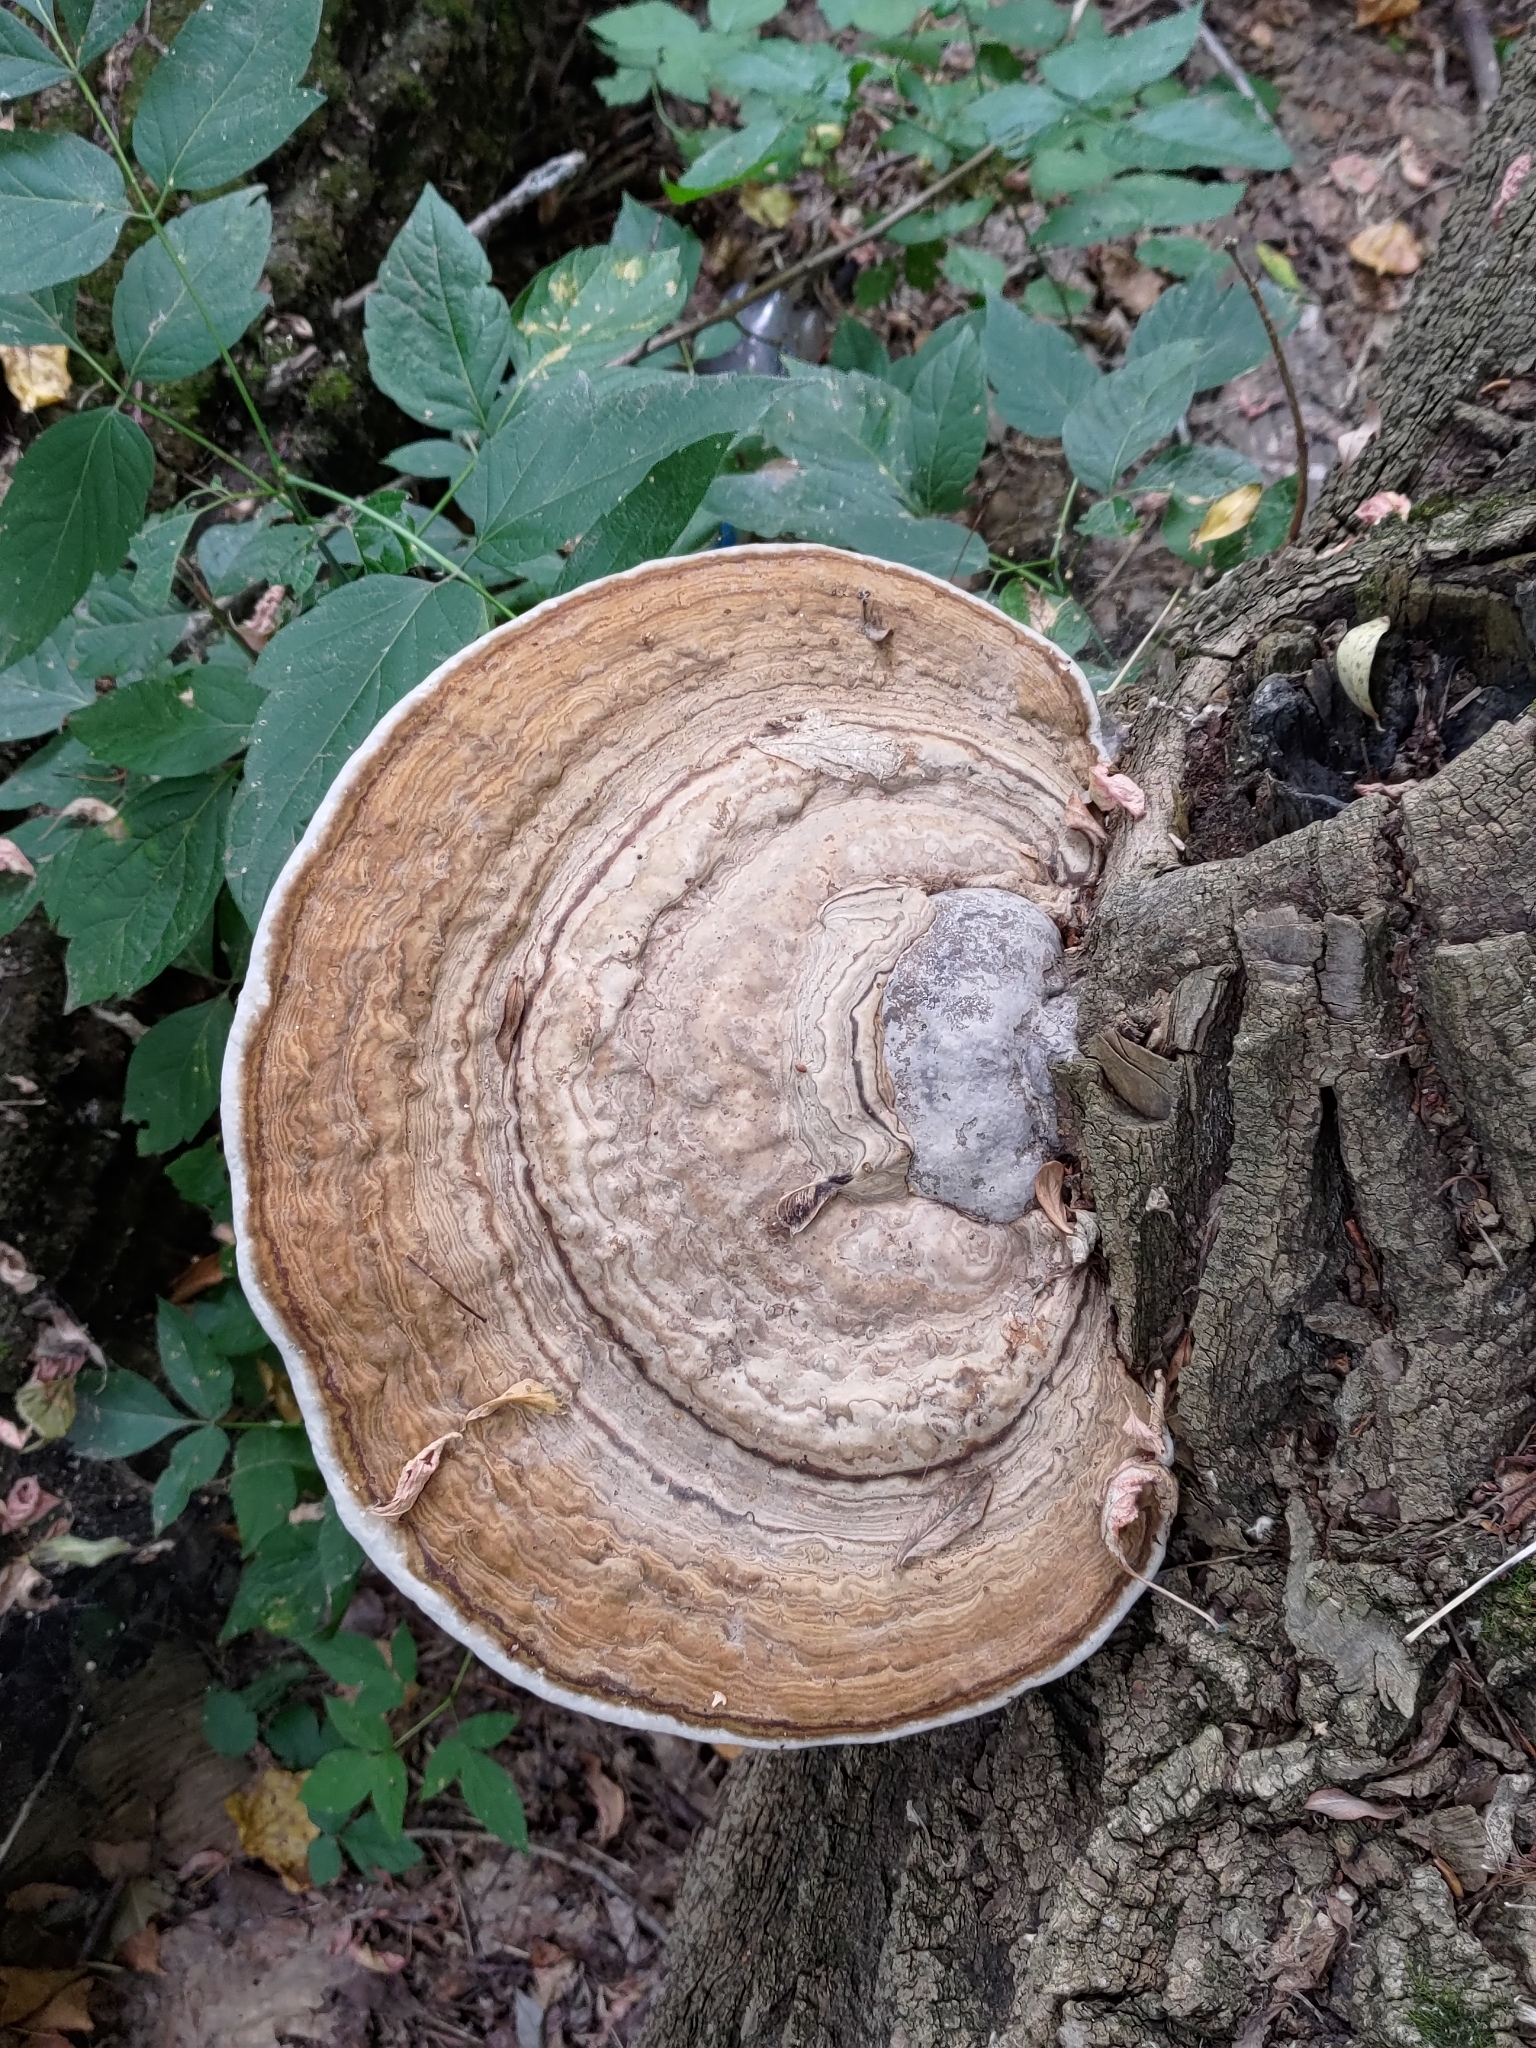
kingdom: Fungi
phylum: Basidiomycota
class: Agaricomycetes
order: Polyporales
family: Polyporaceae
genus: Ganoderma
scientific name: Ganoderma applanatum
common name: Artist's bracket
